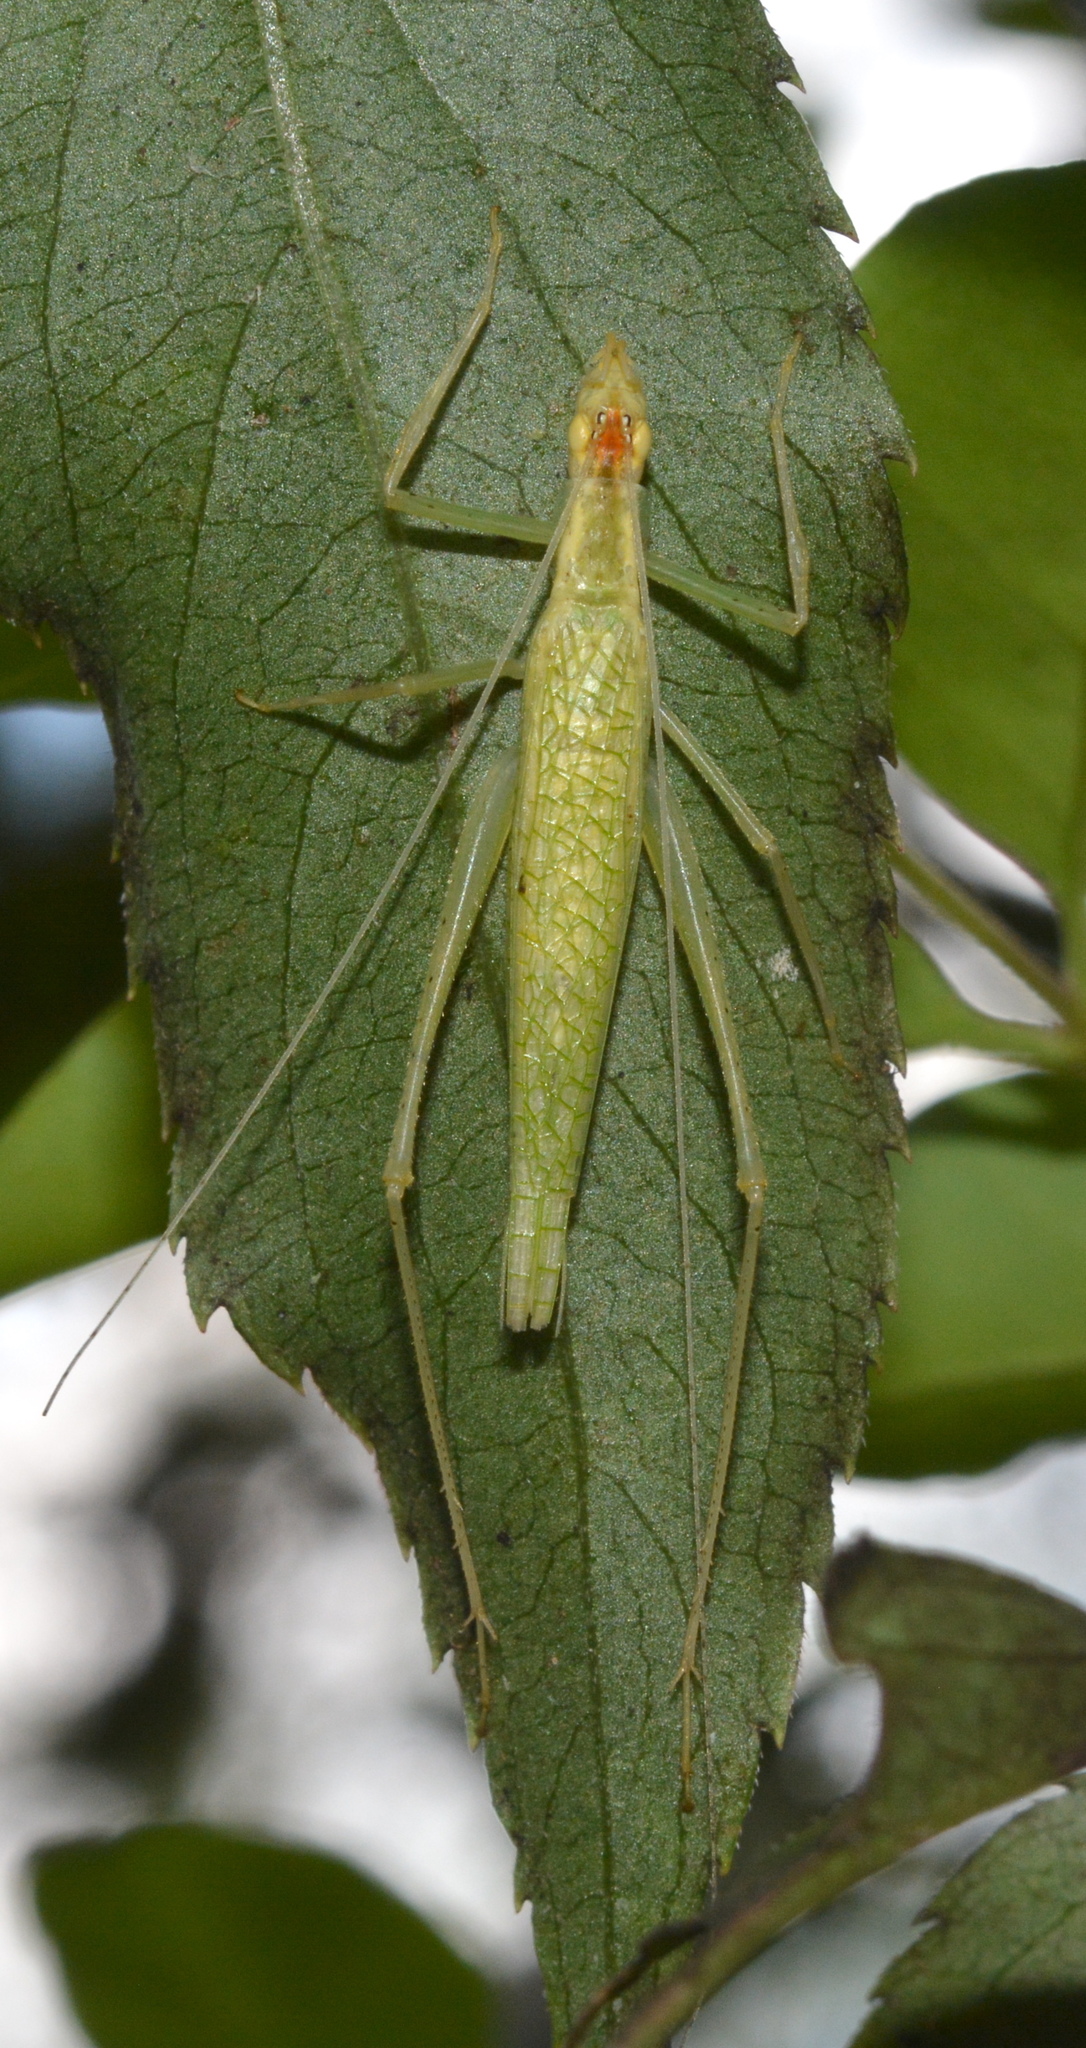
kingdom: Animalia
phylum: Arthropoda
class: Insecta
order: Orthoptera
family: Gryllidae
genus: Oecanthus
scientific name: Oecanthus niveus
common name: Narrow-winged tree cricket
